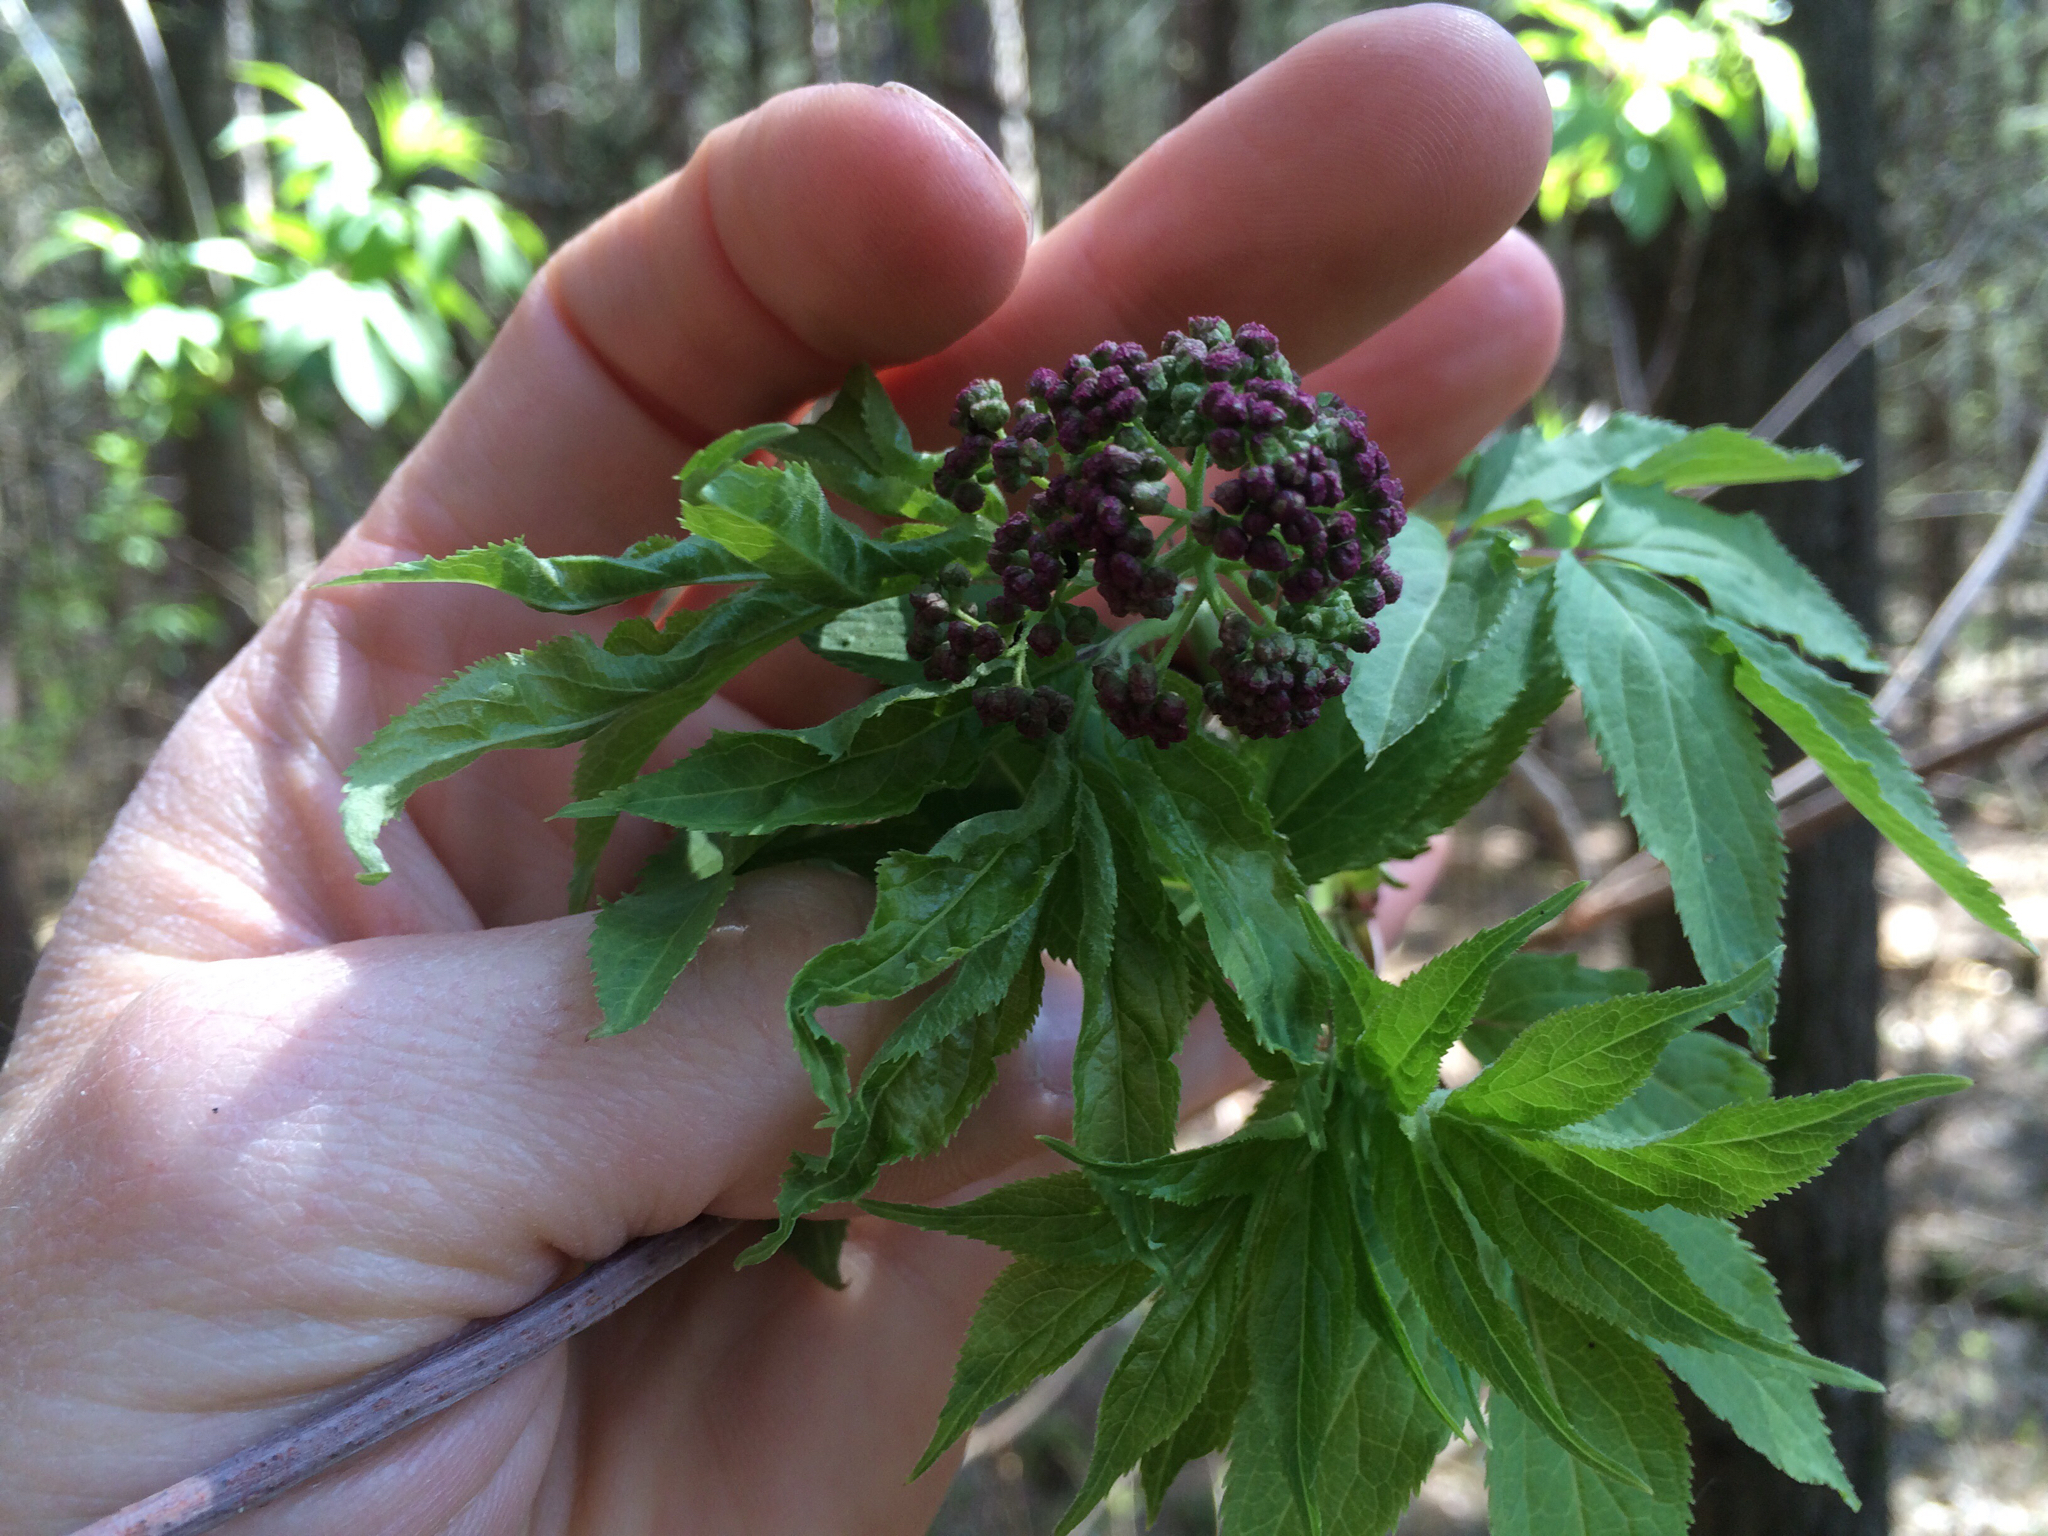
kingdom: Plantae
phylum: Tracheophyta
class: Magnoliopsida
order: Dipsacales
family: Viburnaceae
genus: Sambucus
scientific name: Sambucus racemosa
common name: Red-berried elder
